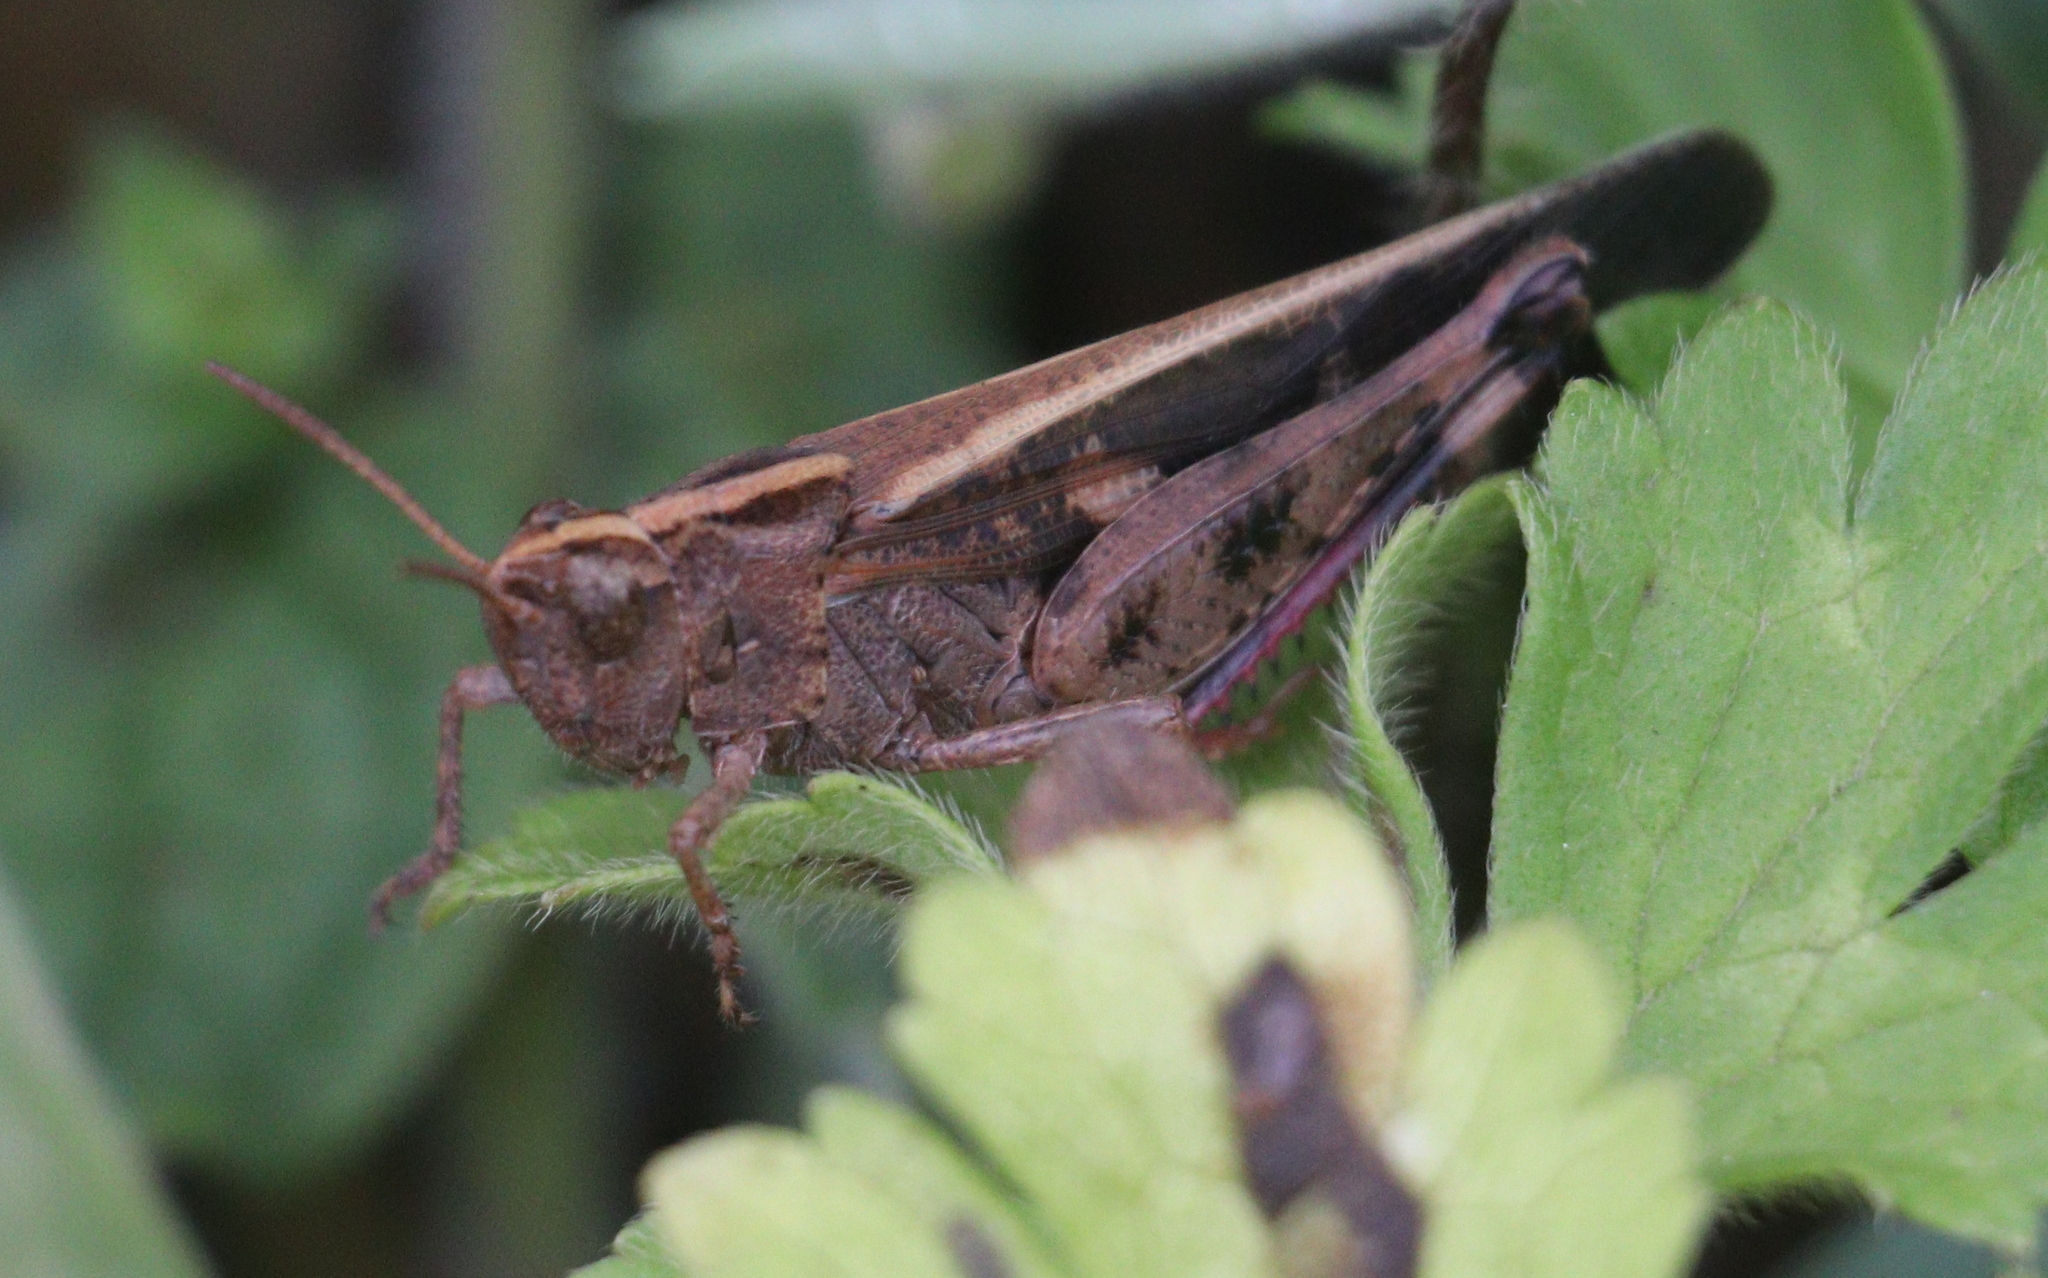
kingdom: Animalia
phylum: Arthropoda
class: Insecta
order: Orthoptera
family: Acrididae
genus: Aiolopus
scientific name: Aiolopus strepens
